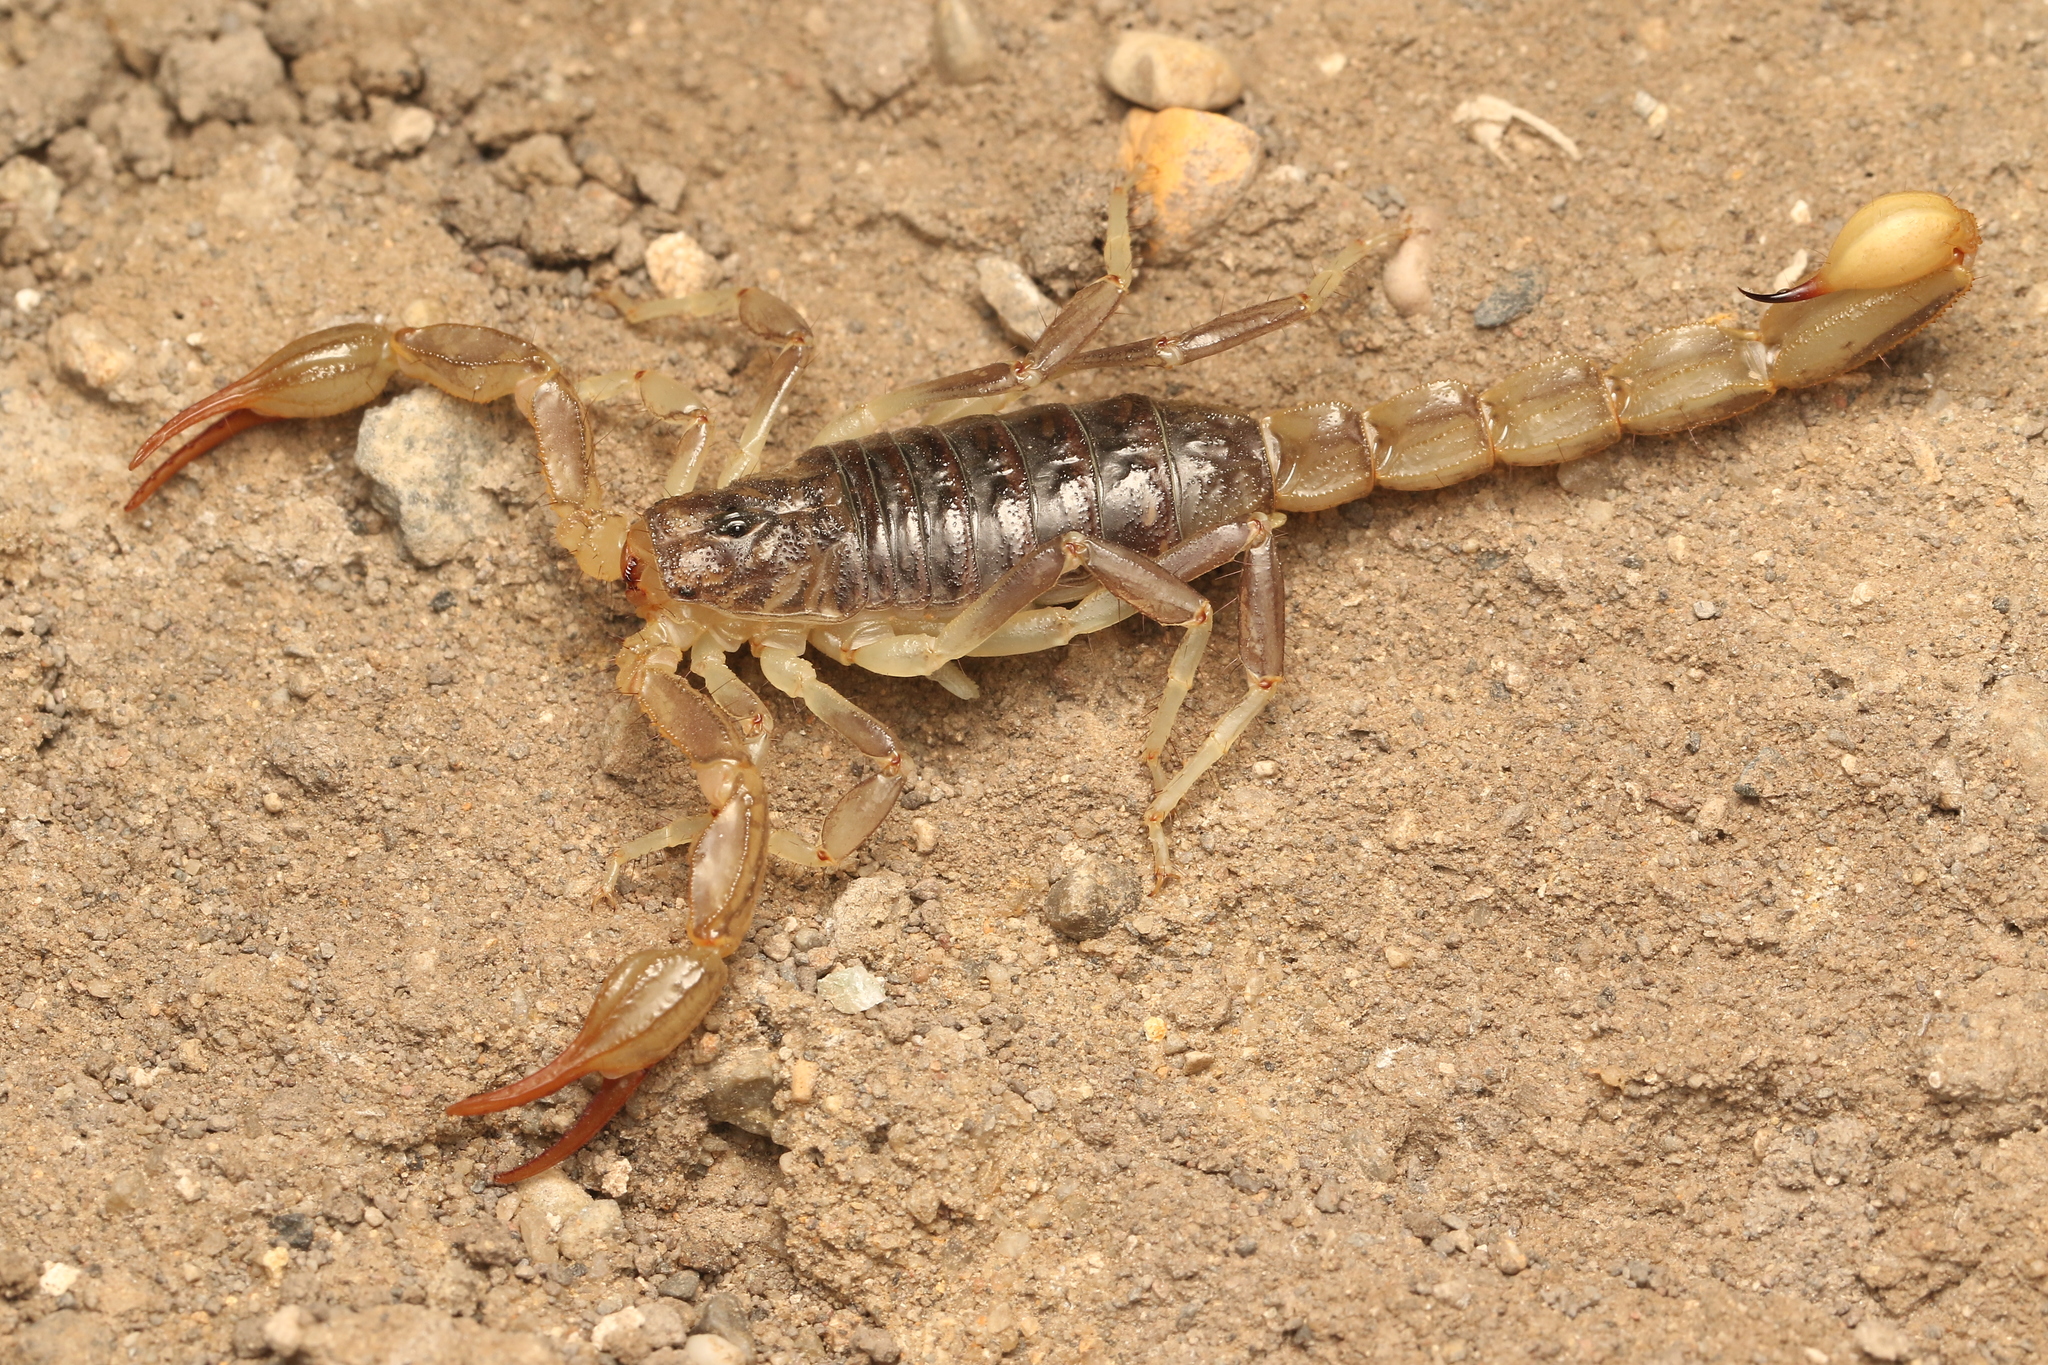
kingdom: Animalia
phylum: Arthropoda
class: Arachnida
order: Scorpiones
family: Vaejovidae
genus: Paruroctonus
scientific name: Paruroctonus silvestrii
